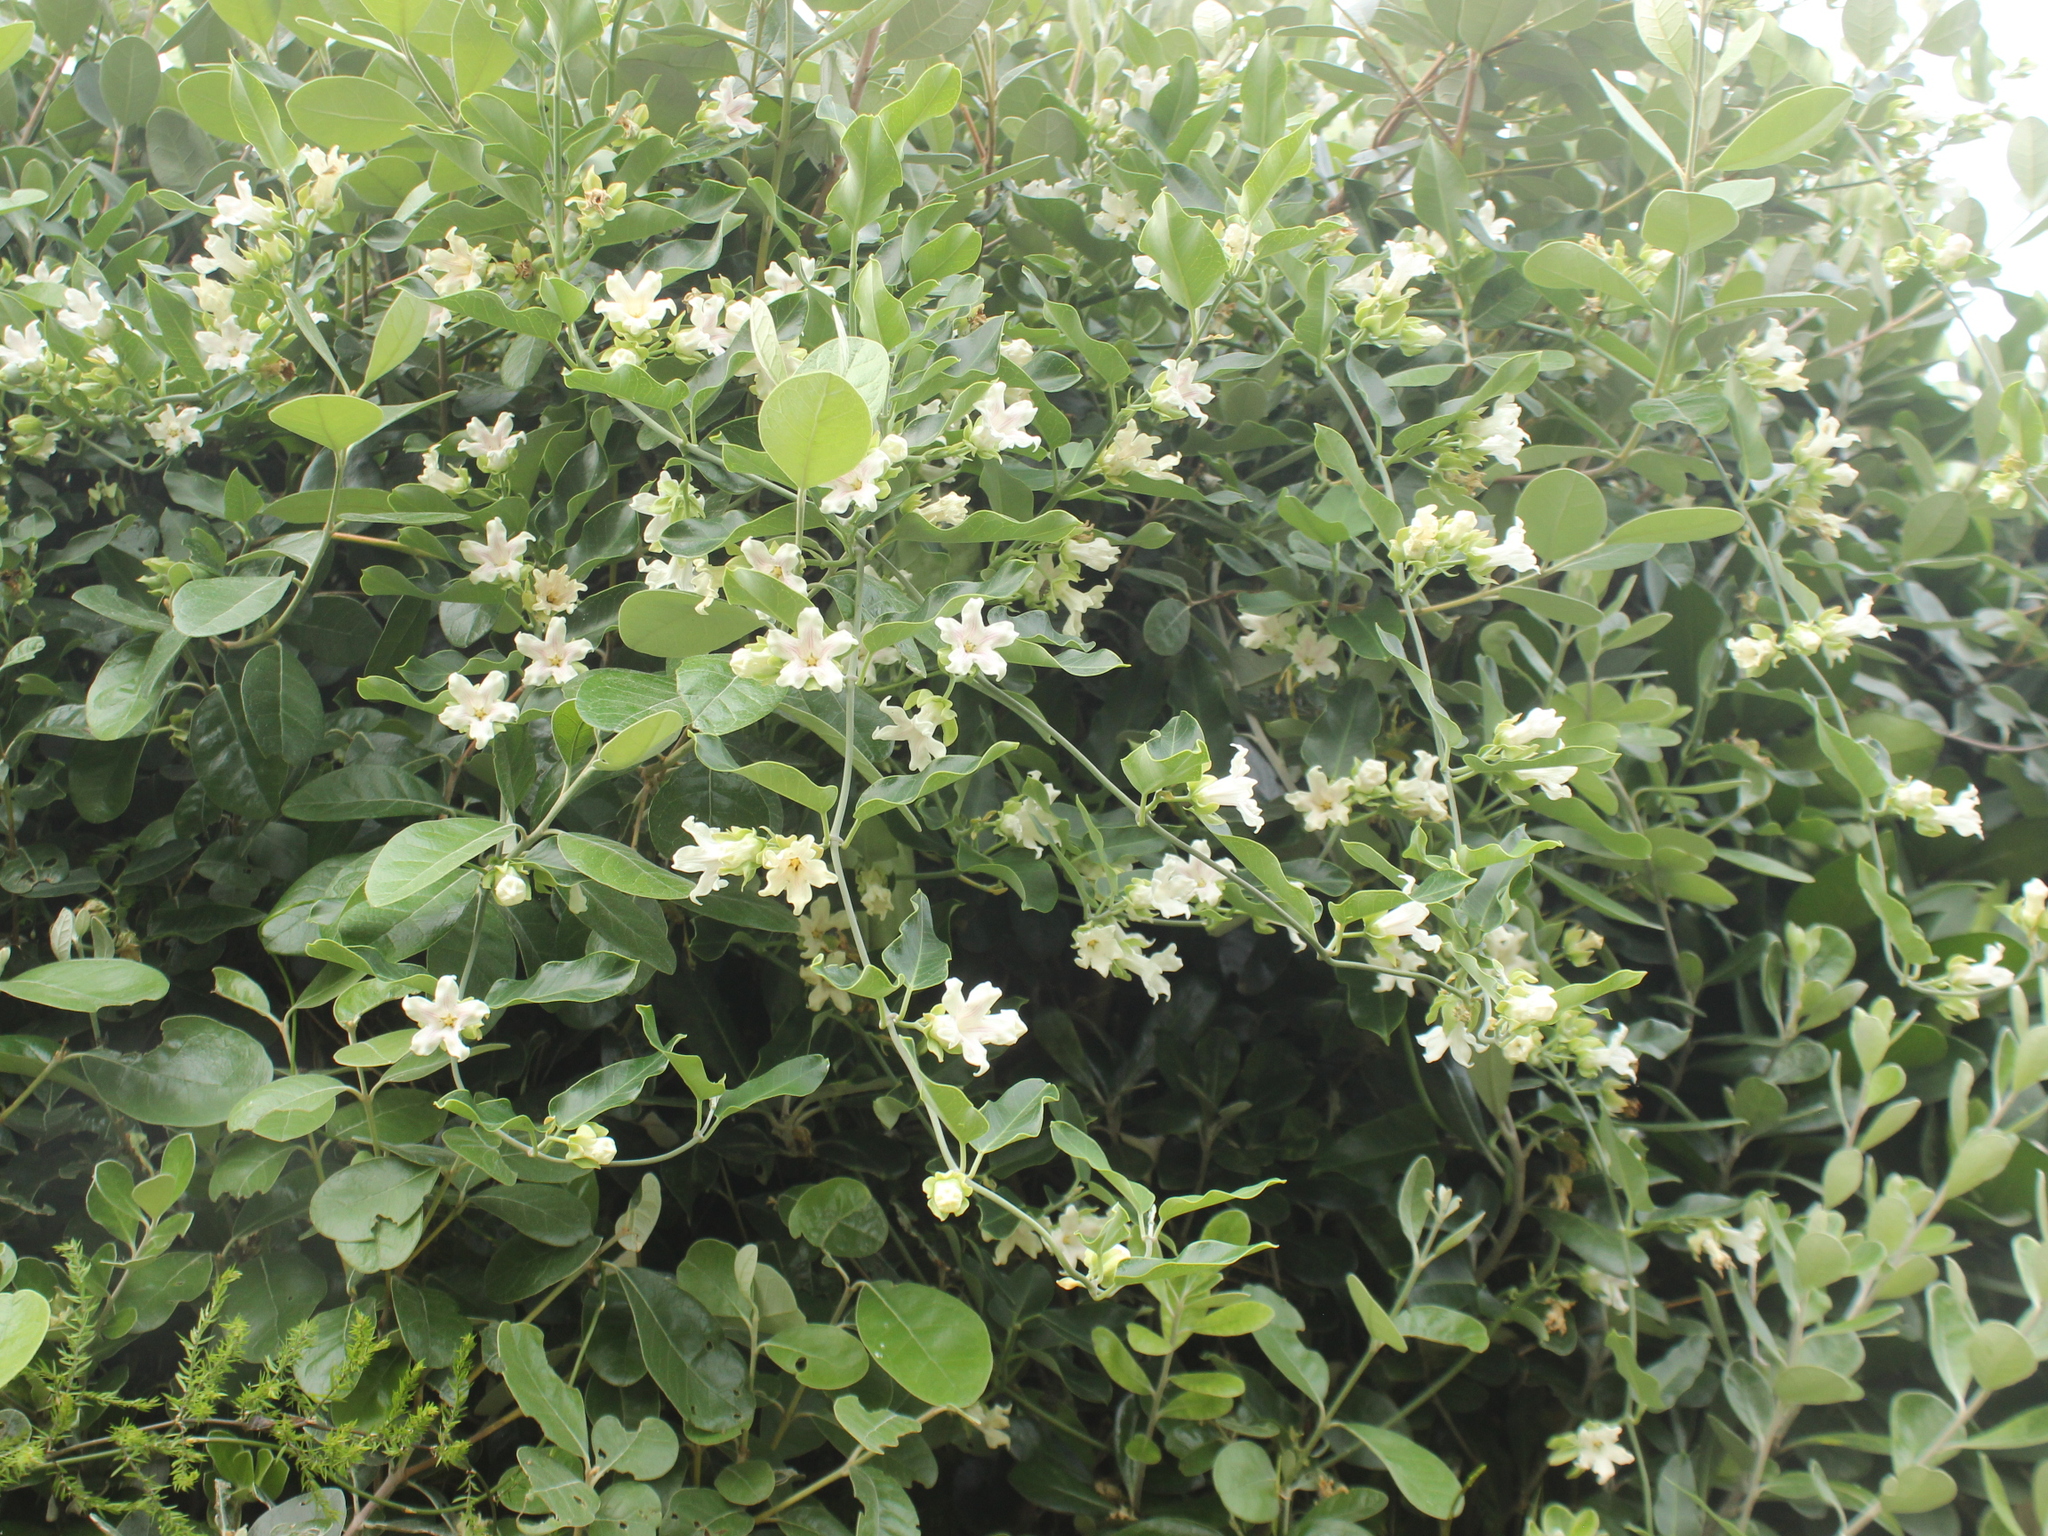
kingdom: Plantae
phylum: Tracheophyta
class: Magnoliopsida
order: Gentianales
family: Apocynaceae
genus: Araujia
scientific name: Araujia sericifera
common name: White bladderflower
